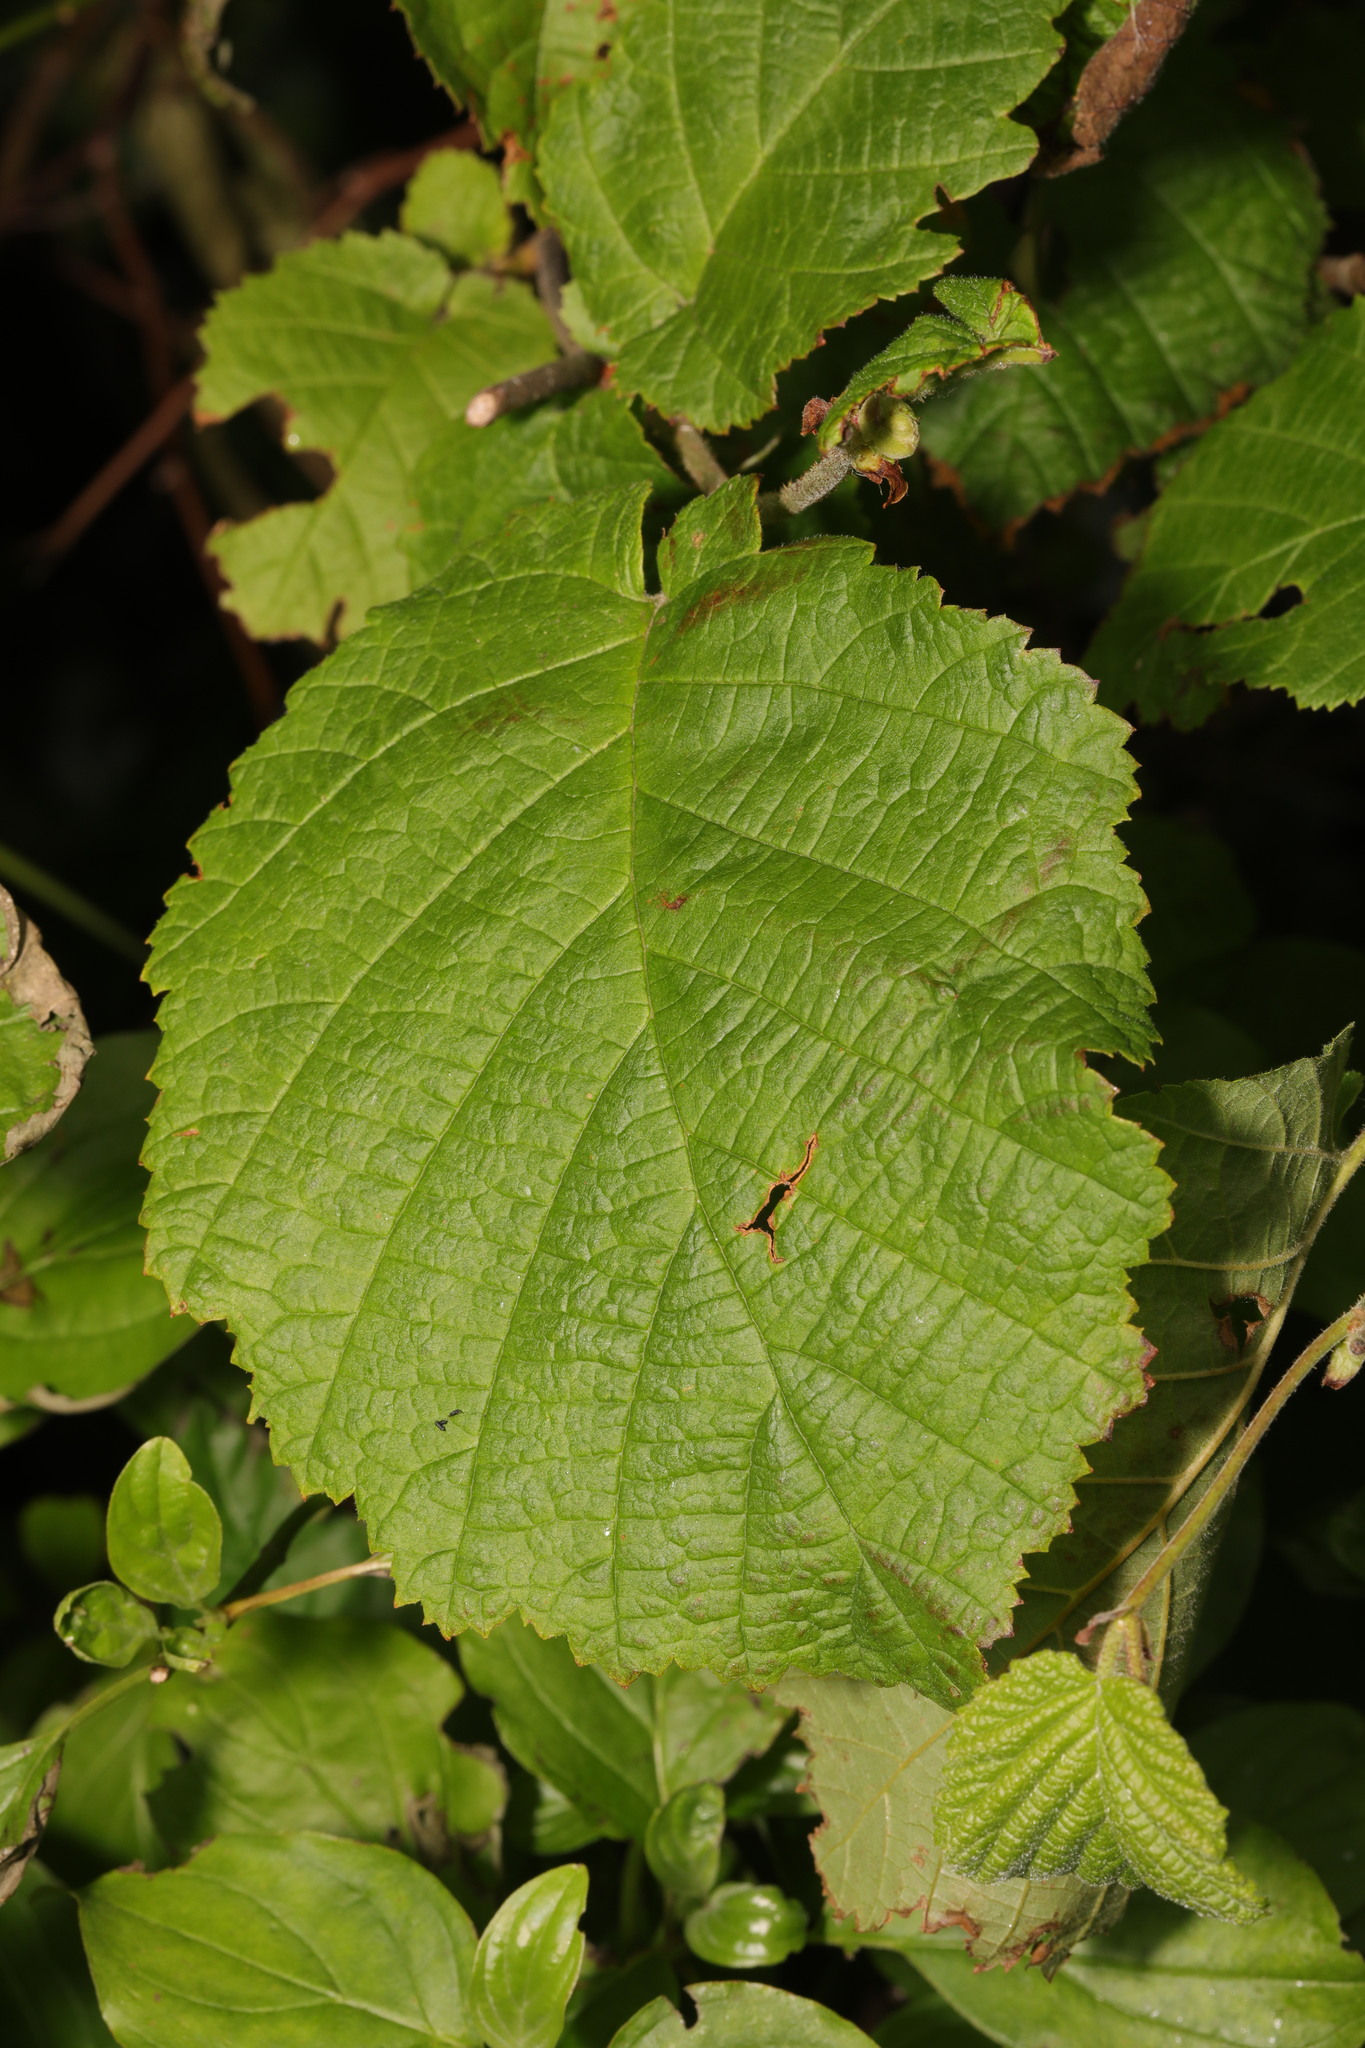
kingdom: Plantae
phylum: Tracheophyta
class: Magnoliopsida
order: Fagales
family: Betulaceae
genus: Corylus
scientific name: Corylus avellana
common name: European hazel
